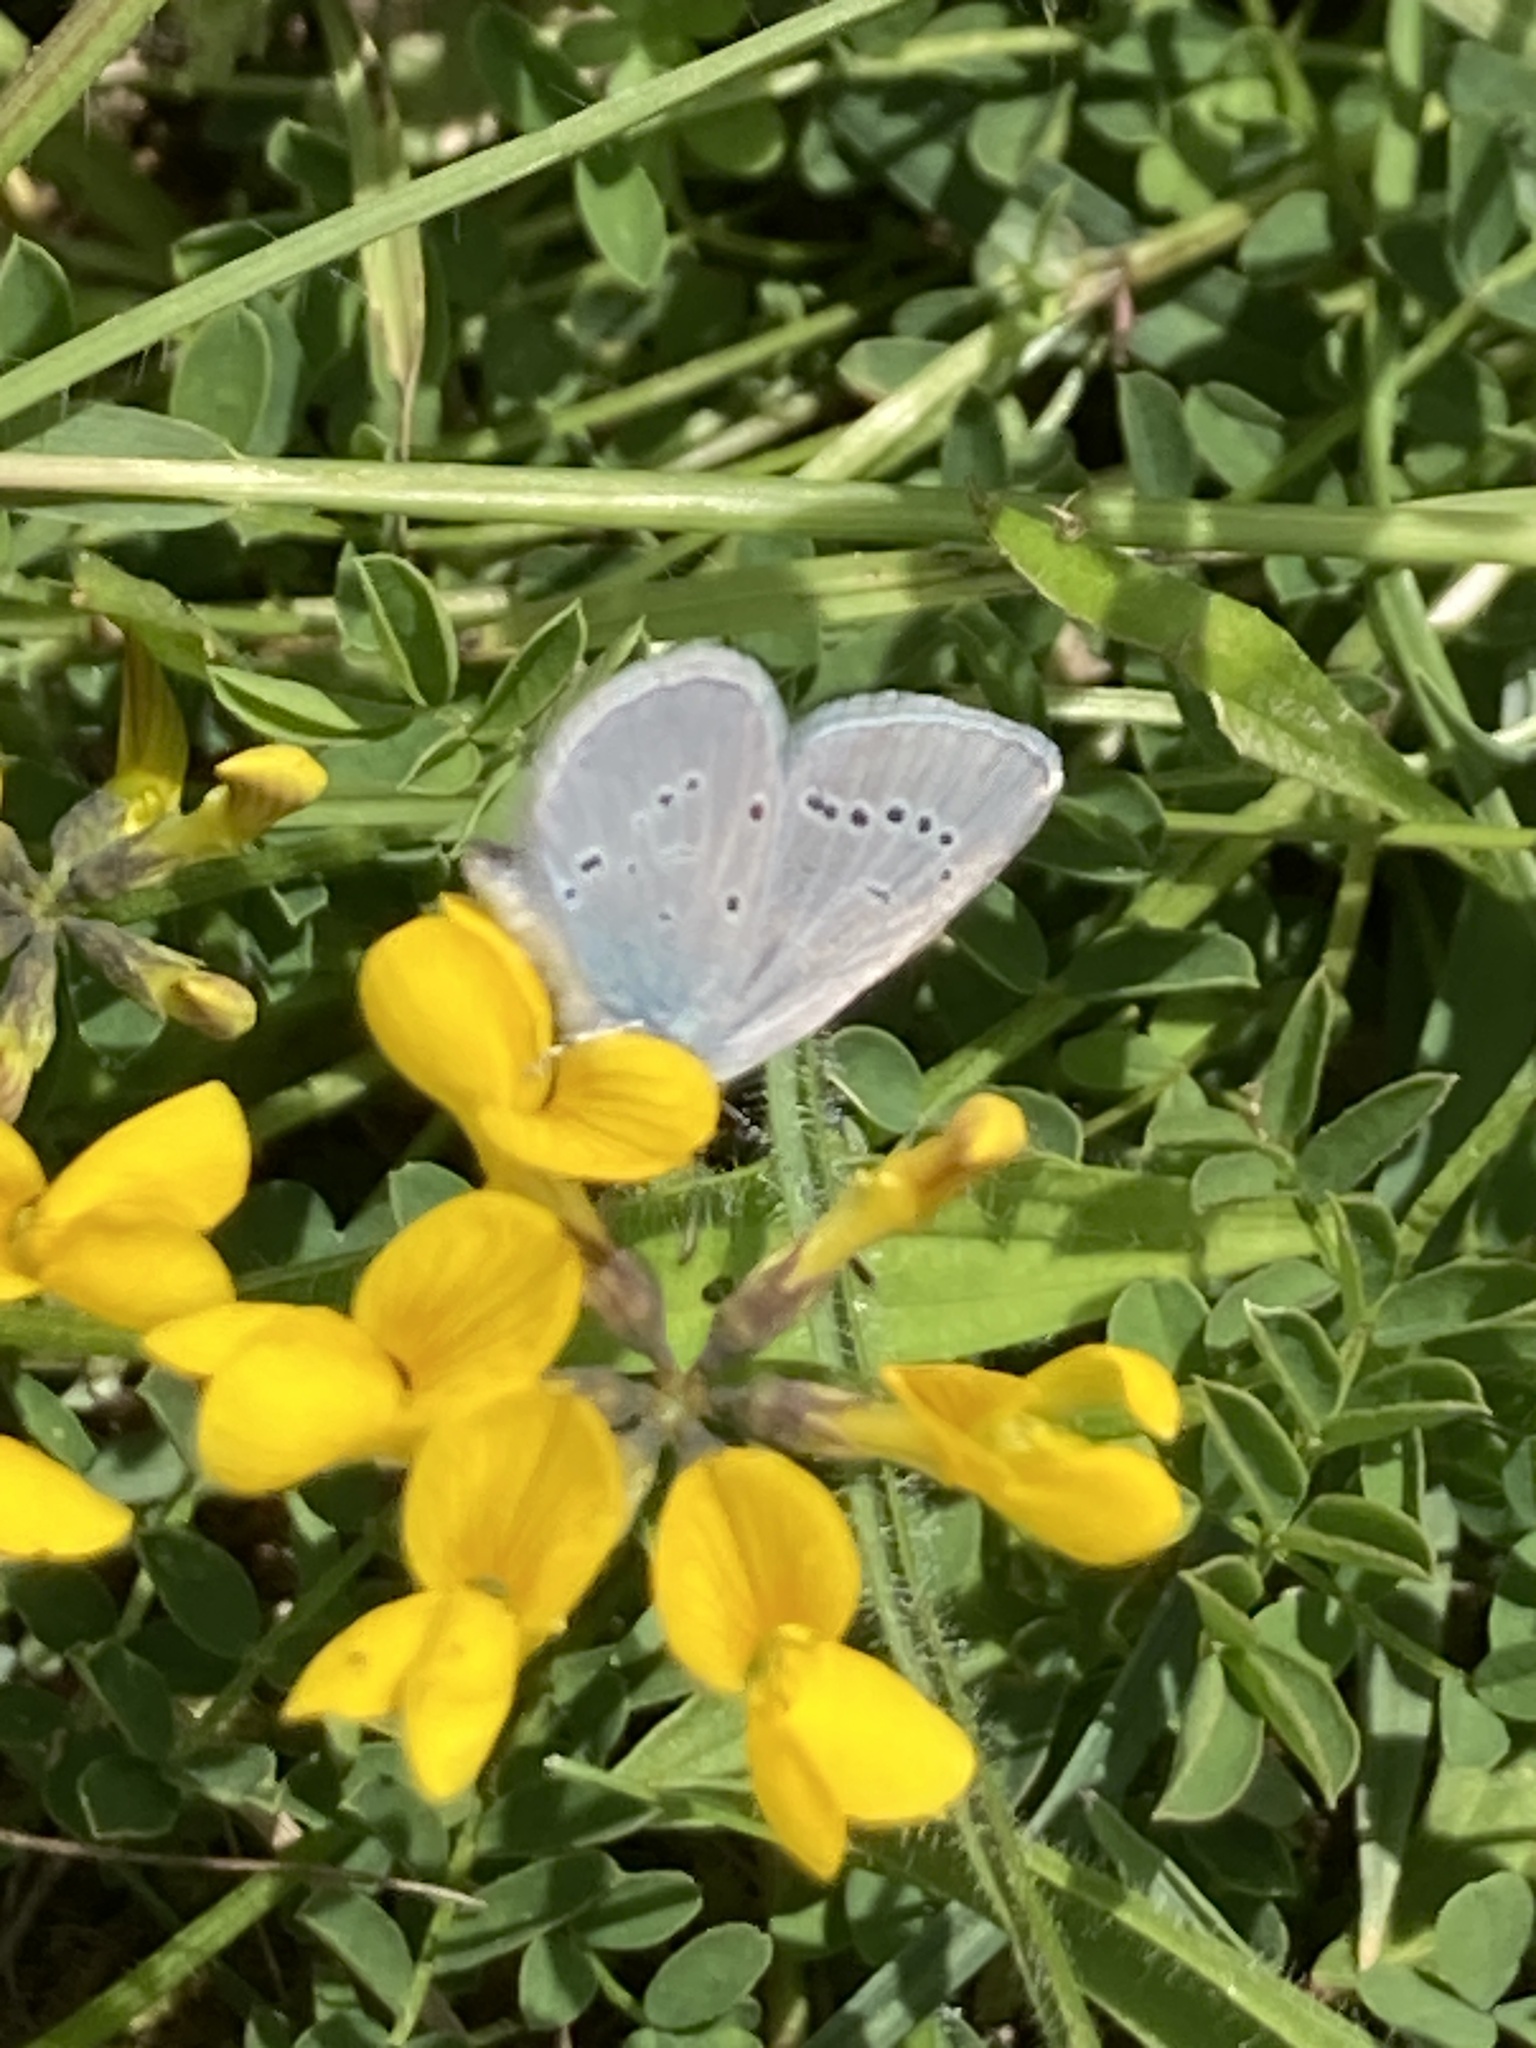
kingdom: Animalia
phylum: Arthropoda
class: Insecta
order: Lepidoptera
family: Lycaenidae
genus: Cupido
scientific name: Cupido minimus
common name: Small blue
